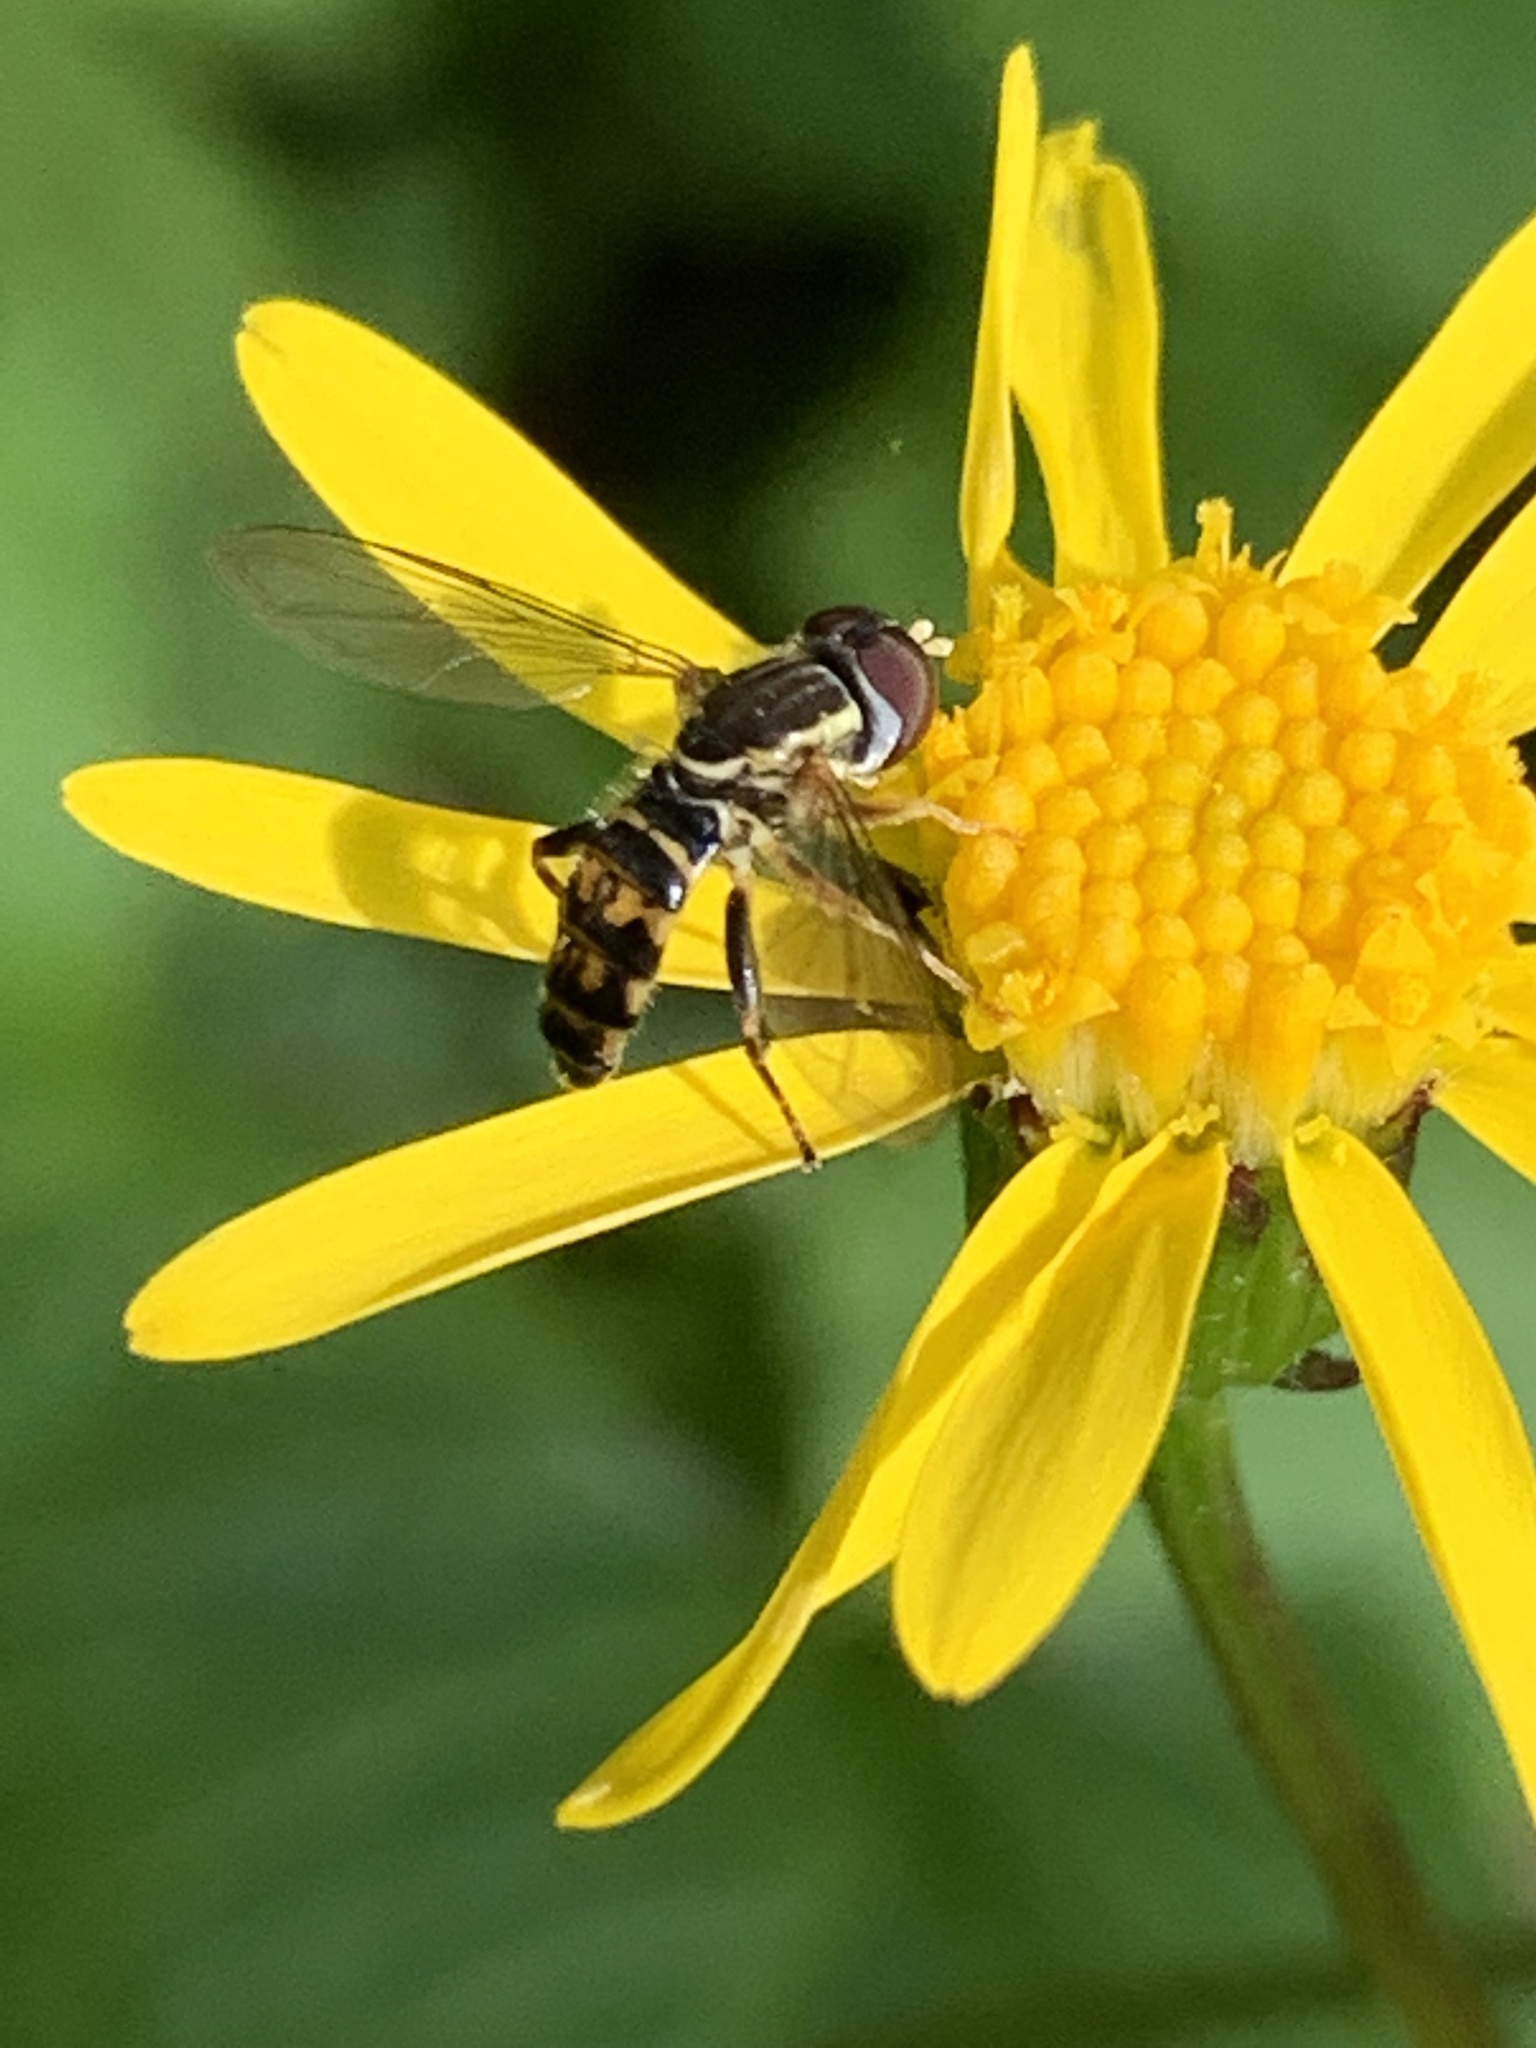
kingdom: Animalia
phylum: Arthropoda
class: Insecta
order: Diptera
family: Syrphidae
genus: Toxomerus
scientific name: Toxomerus geminatus
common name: Eastern calligrapher
